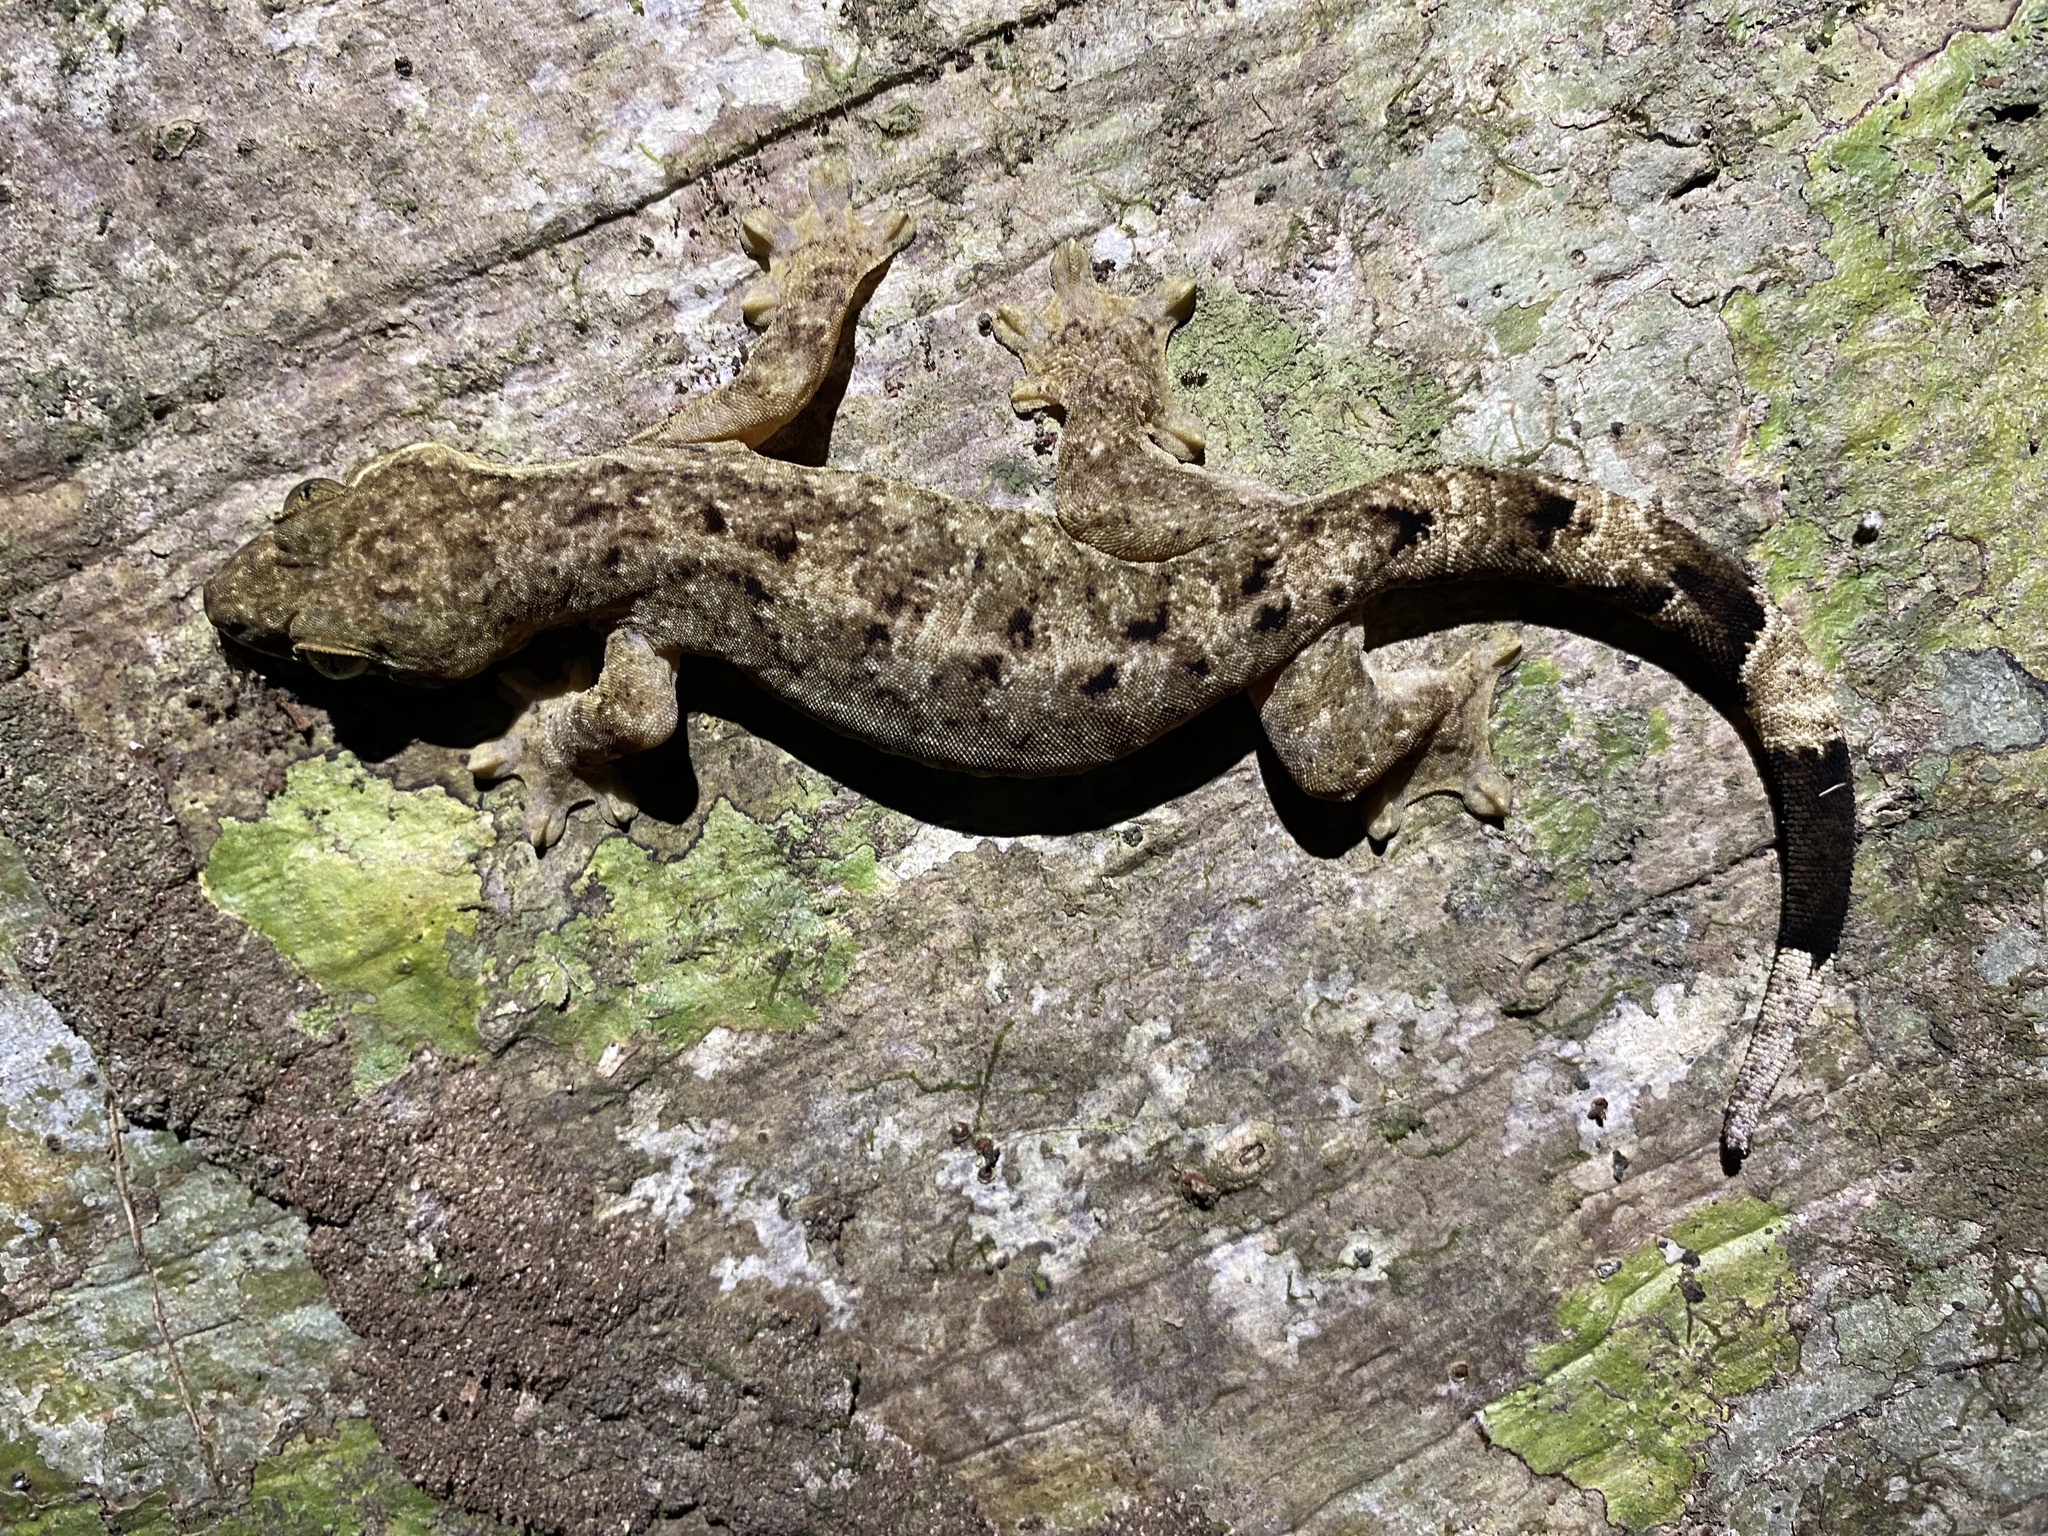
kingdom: Animalia
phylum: Chordata
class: Squamata
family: Phyllodactylidae
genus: Thecadactylus
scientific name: Thecadactylus rapicauda
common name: Turnip-tailed gecko
